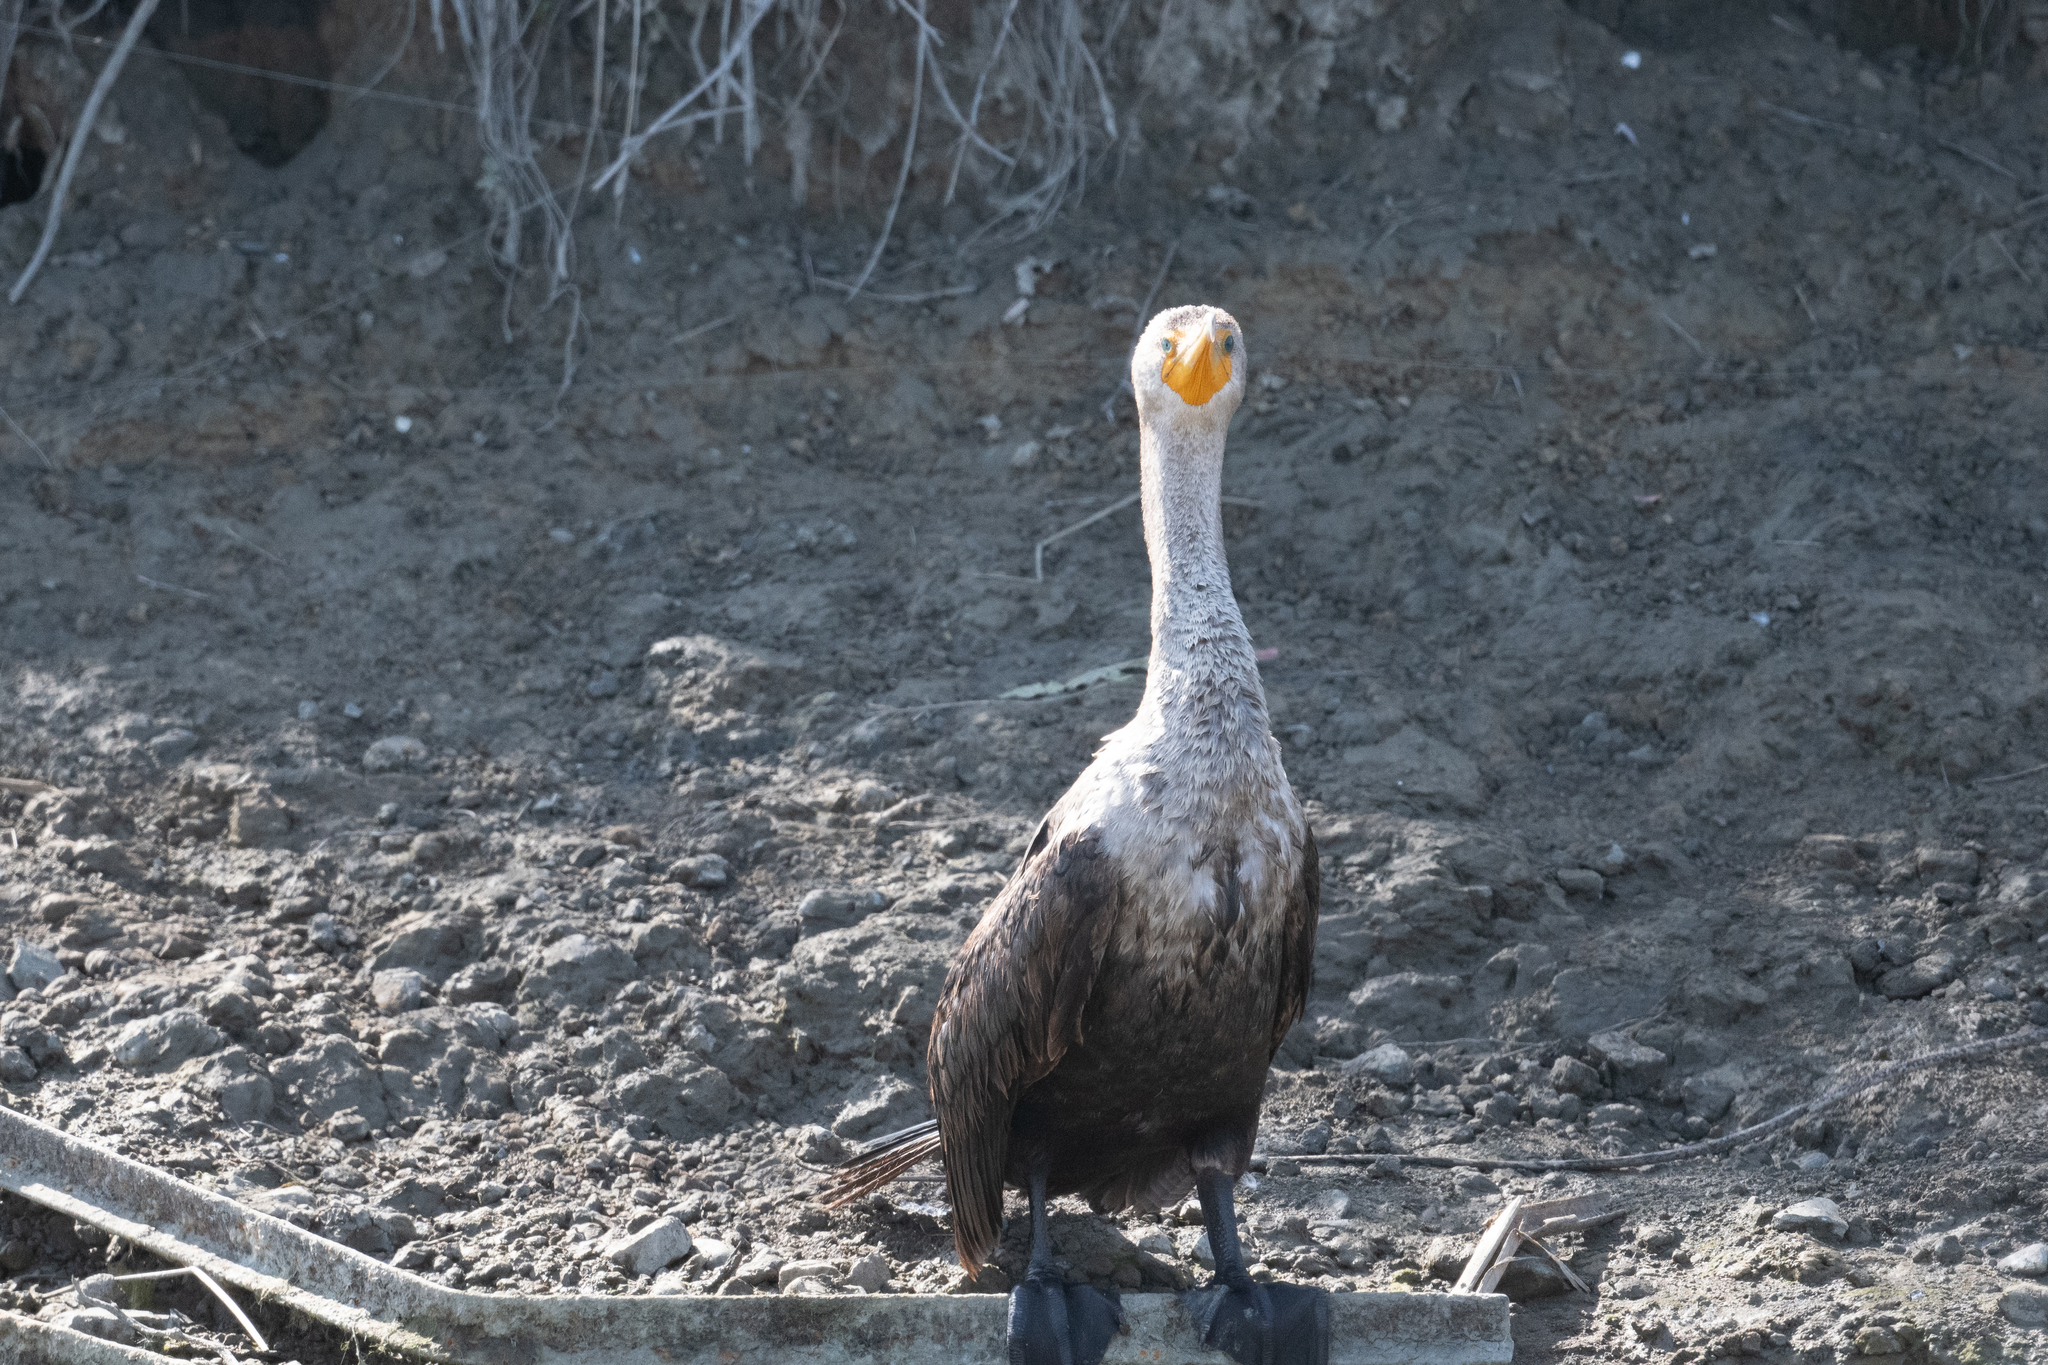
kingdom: Animalia
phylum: Chordata
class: Aves
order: Suliformes
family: Phalacrocoracidae
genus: Phalacrocorax
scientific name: Phalacrocorax auritus
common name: Double-crested cormorant
